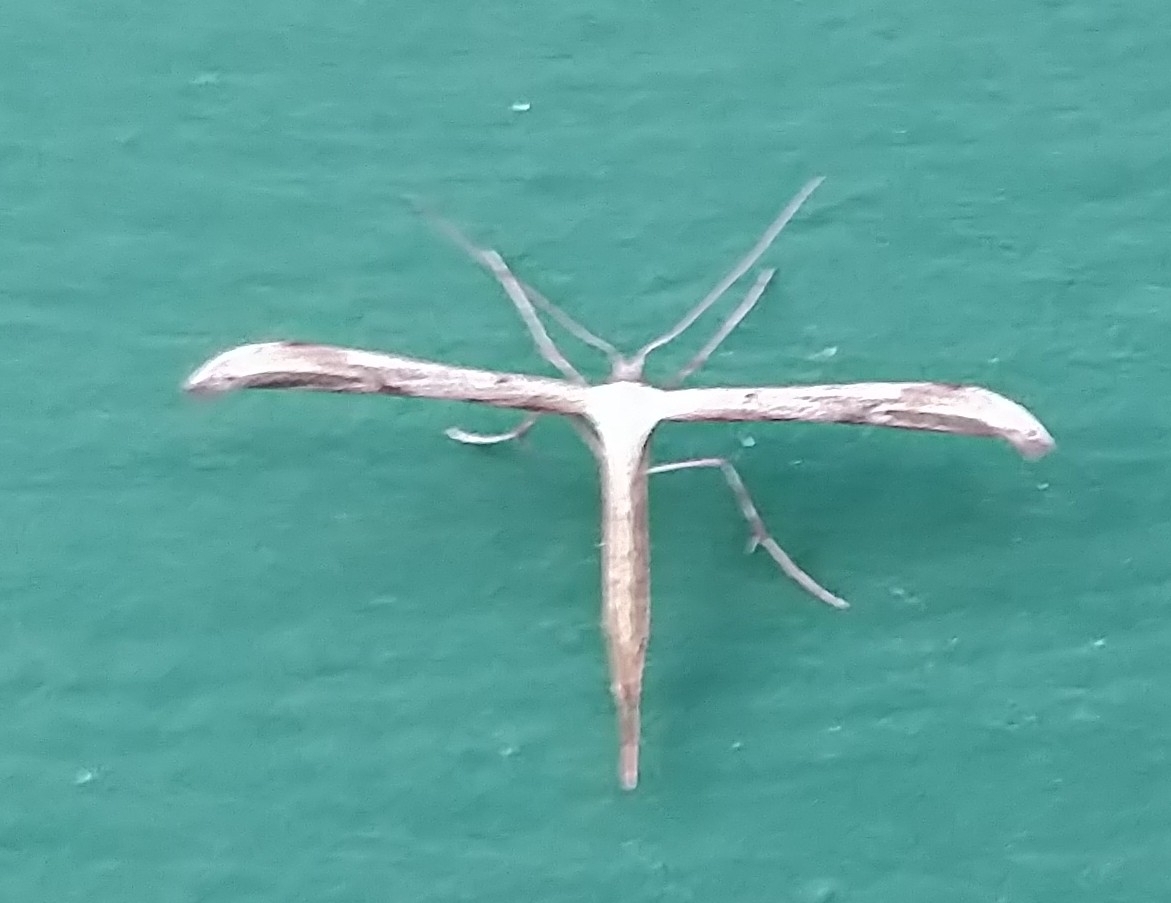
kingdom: Animalia
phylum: Arthropoda
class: Insecta
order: Lepidoptera
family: Pterophoridae
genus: Emmelina
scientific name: Emmelina monodactyla
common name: Common plume
